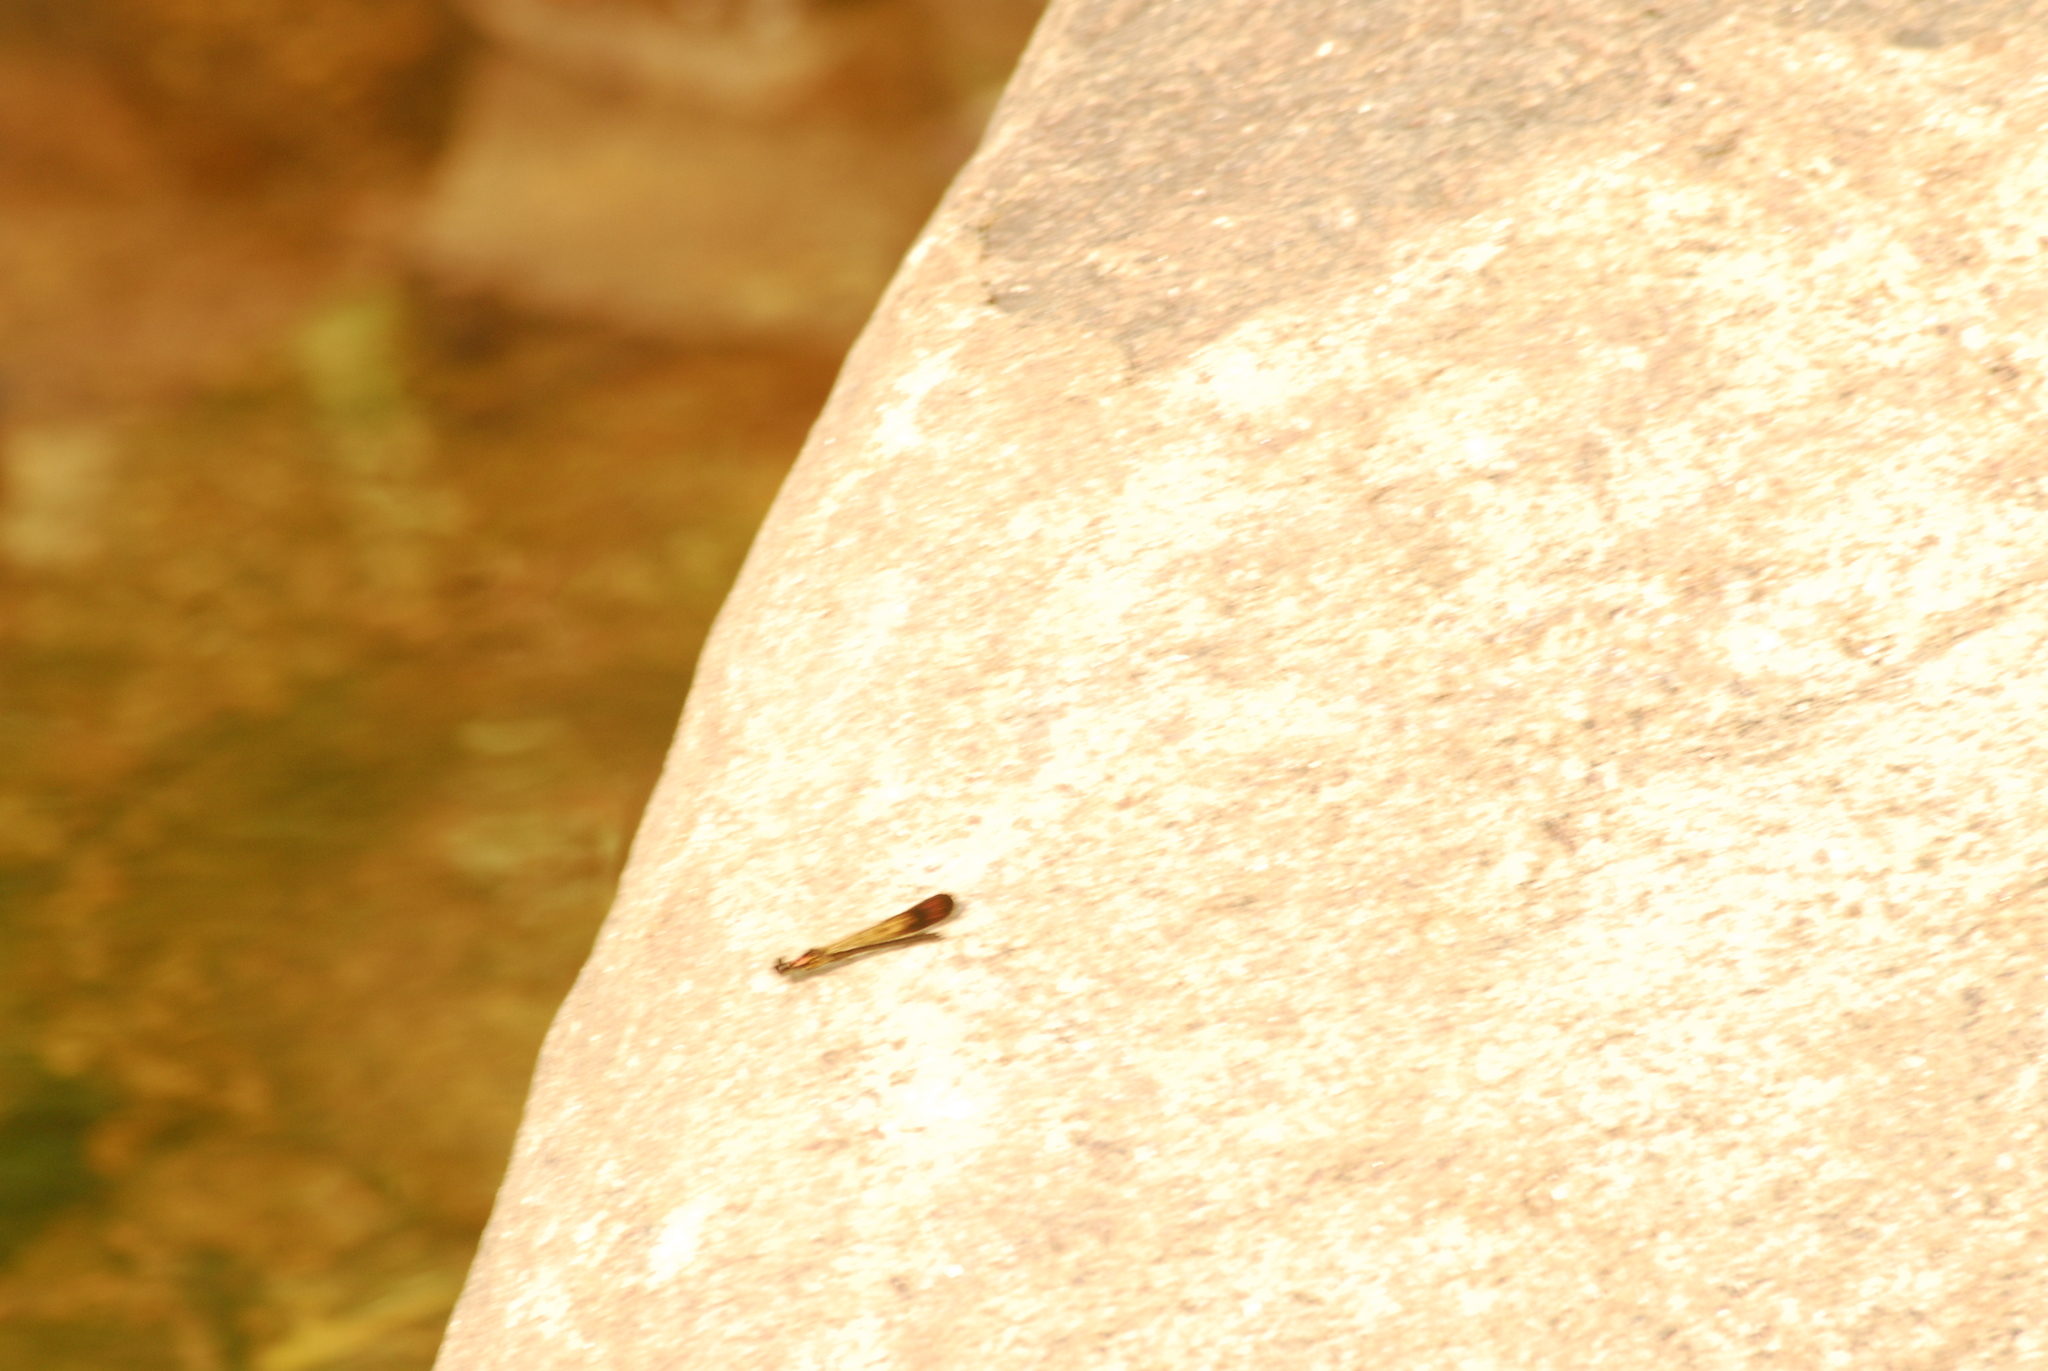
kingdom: Animalia
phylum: Arthropoda
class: Insecta
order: Odonata
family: Chlorocyphidae
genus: Heliocypha
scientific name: Heliocypha bisignata
